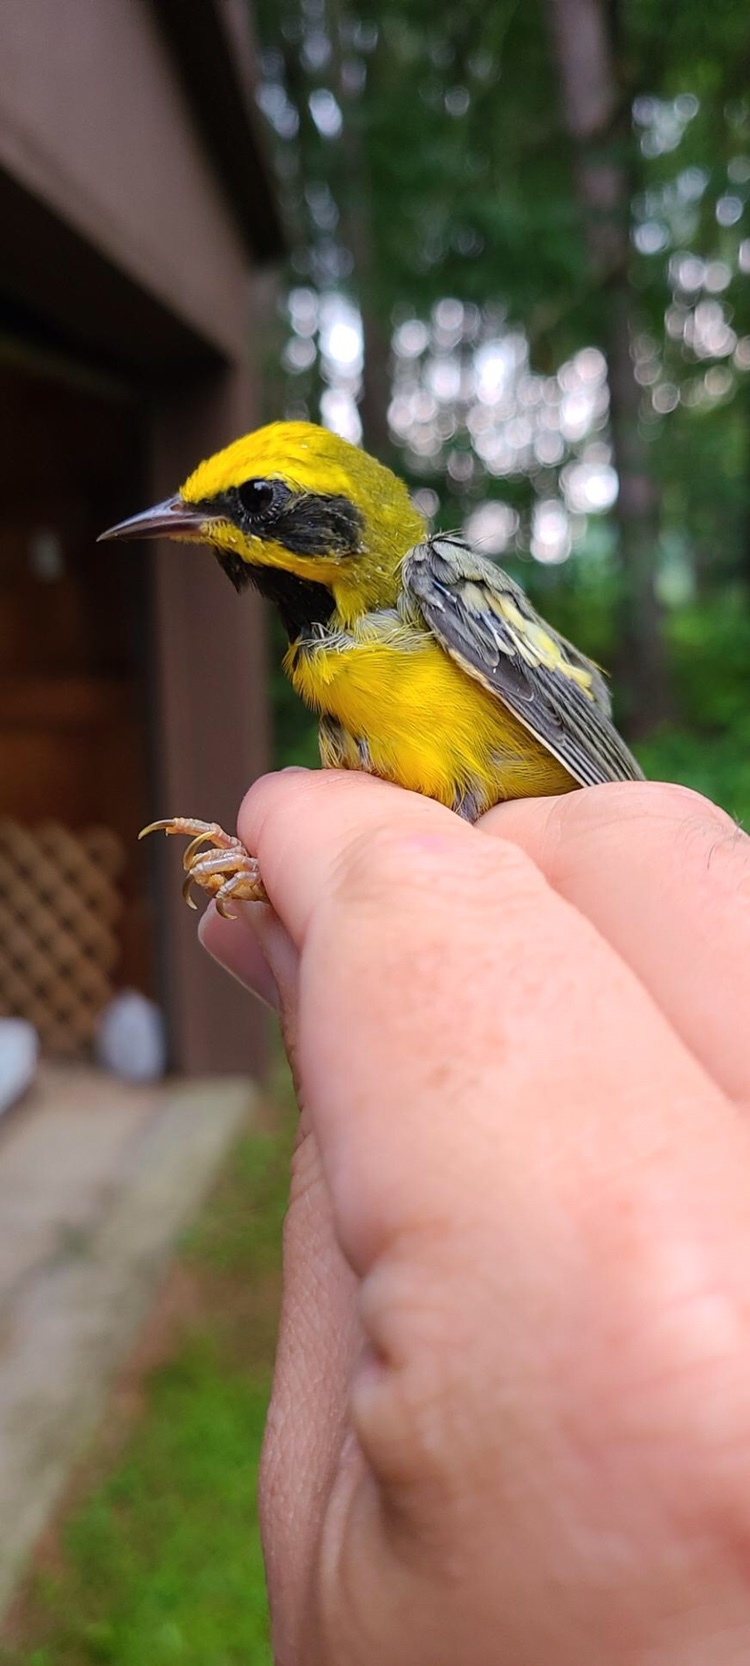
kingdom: Animalia
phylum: Chordata
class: Aves
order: Passeriformes
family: Parulidae
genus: Vermivora
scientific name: Vermivora
